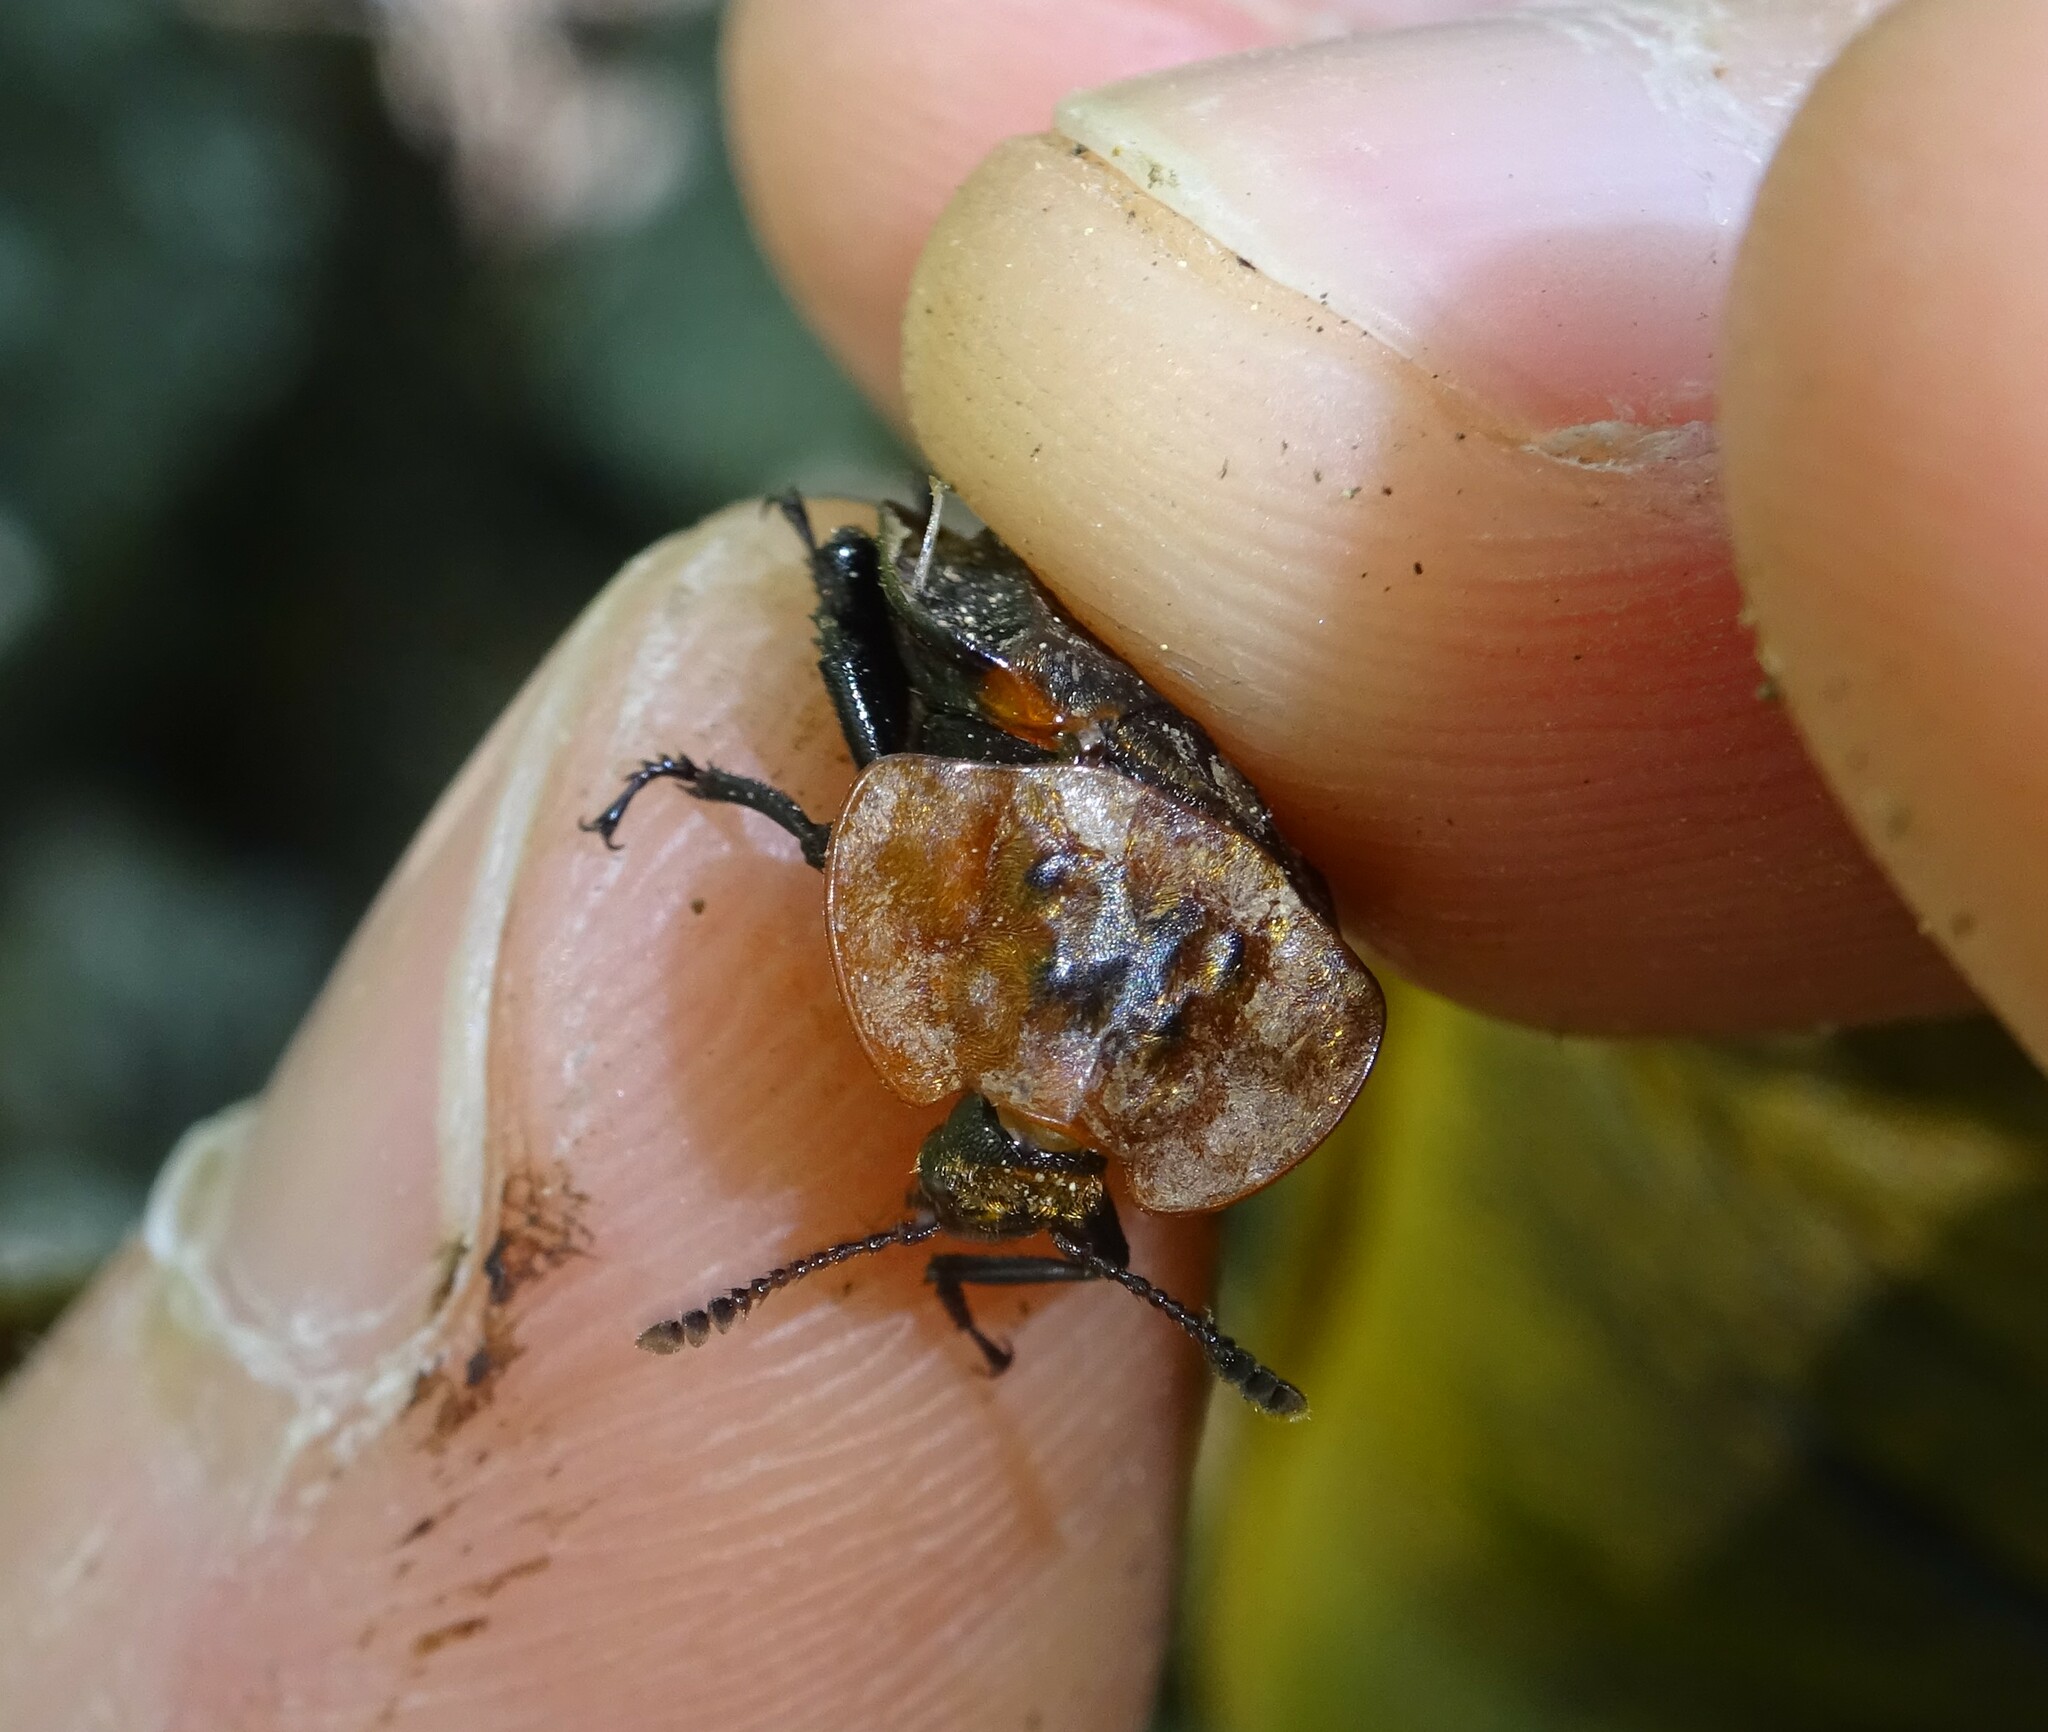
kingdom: Animalia
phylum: Arthropoda
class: Insecta
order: Coleoptera
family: Staphylinidae
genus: Oiceoptoma
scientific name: Oiceoptoma thoracicum
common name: Red-breasted carrion beetle
